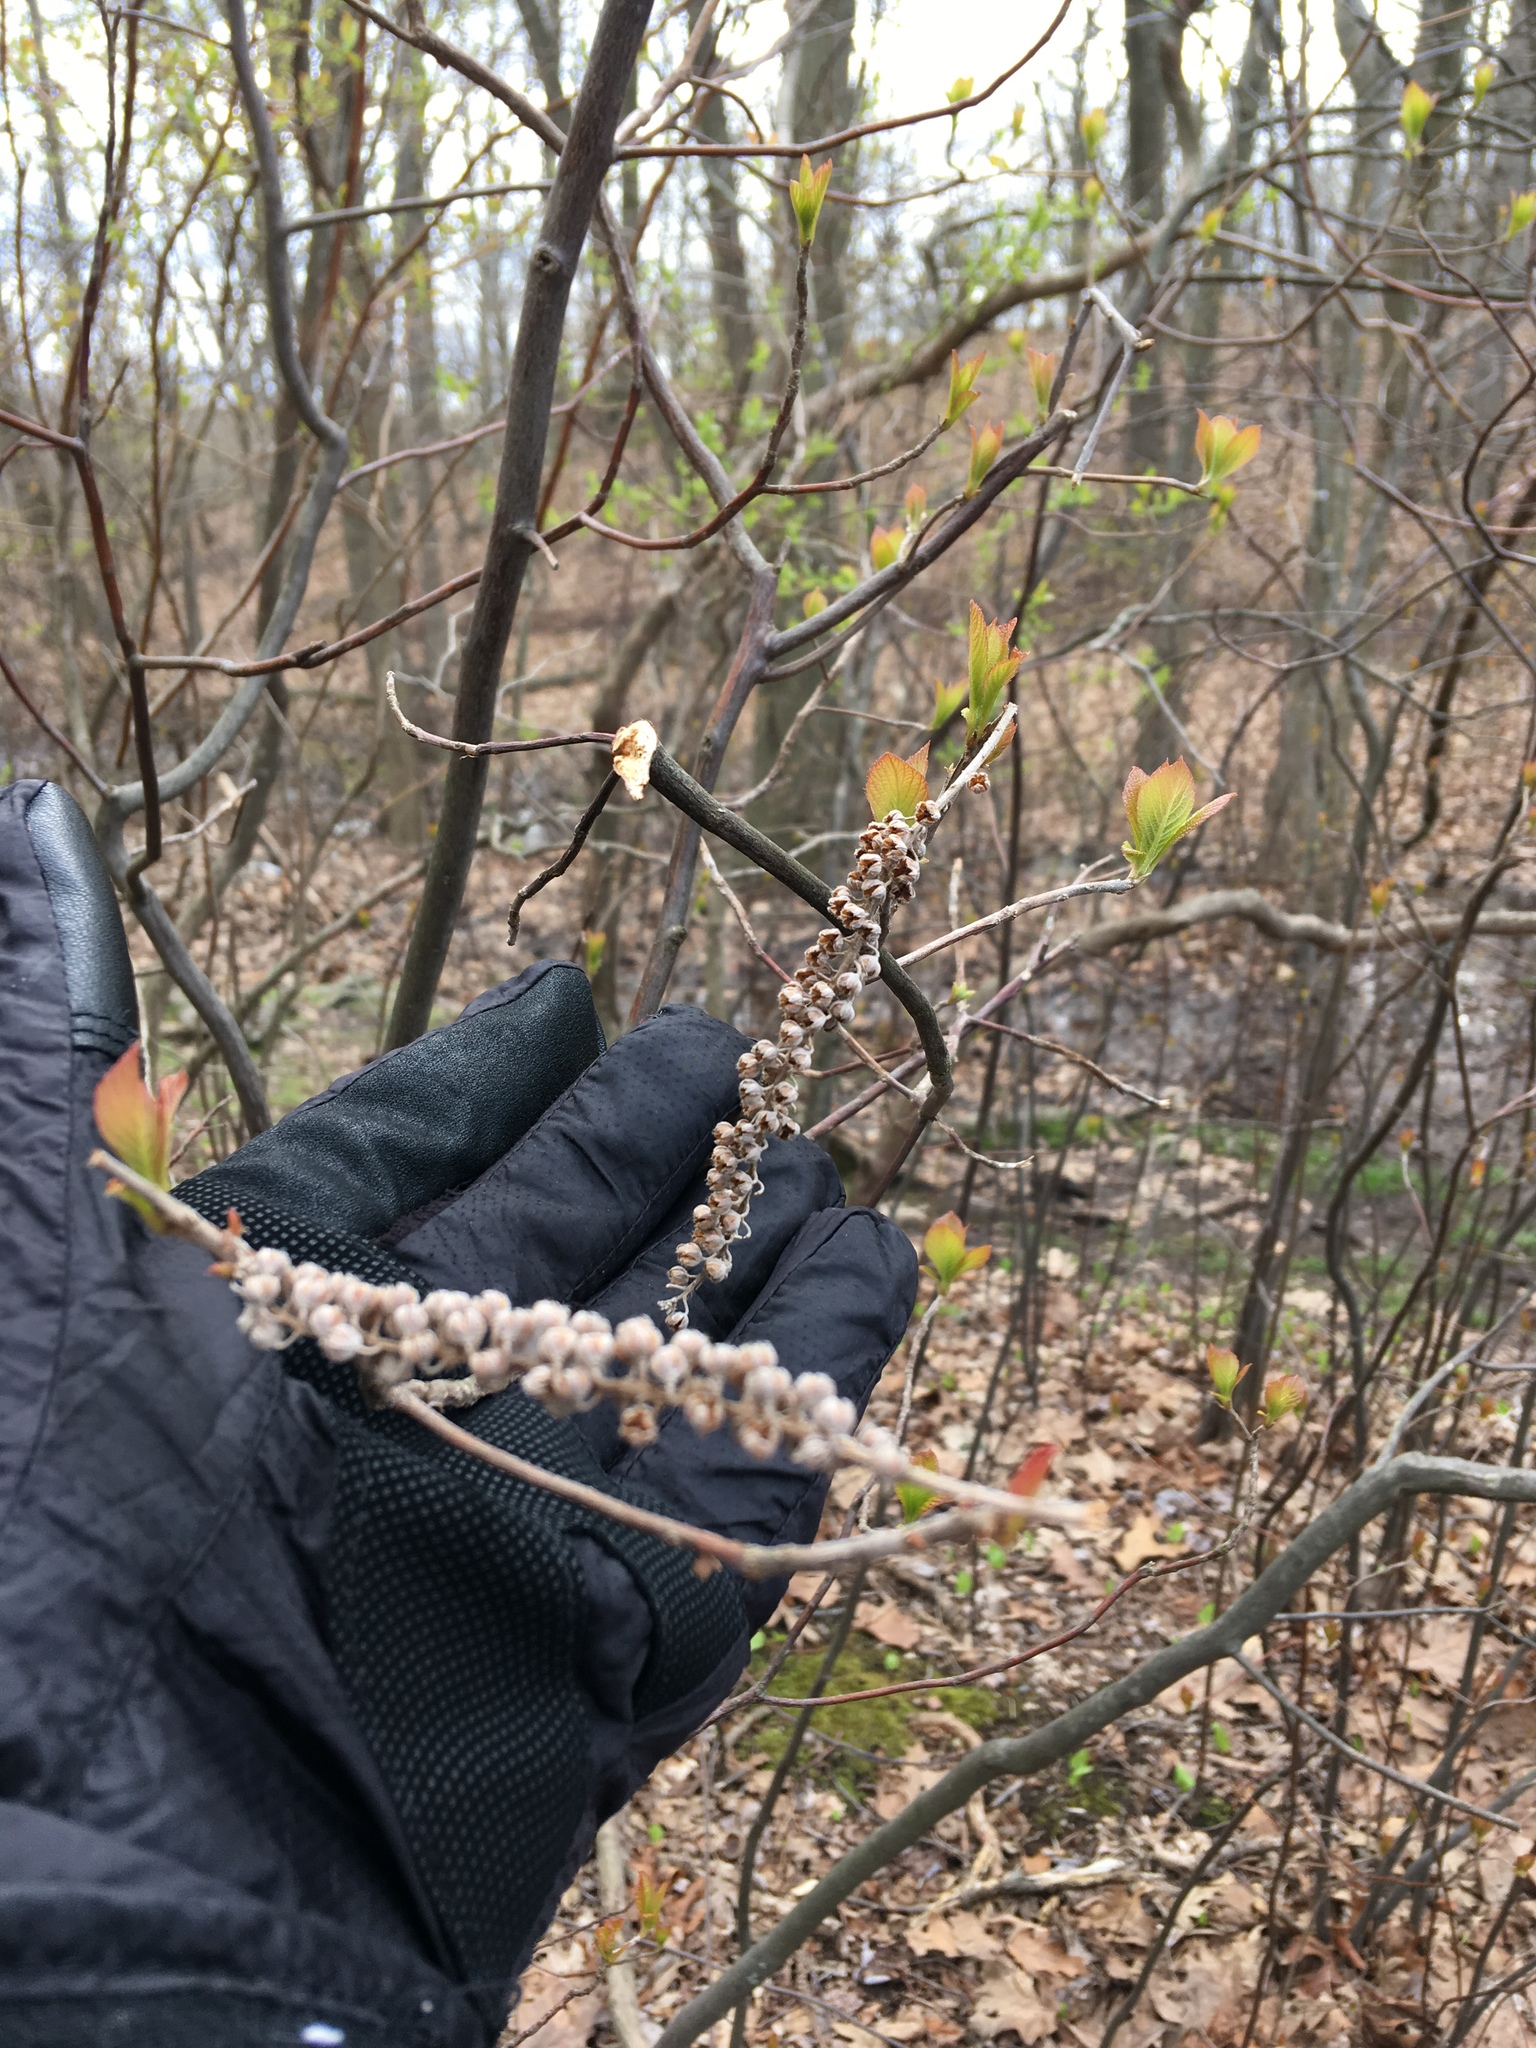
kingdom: Plantae
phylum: Tracheophyta
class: Magnoliopsida
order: Ericales
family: Clethraceae
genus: Clethra
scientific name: Clethra alnifolia
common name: Sweet pepperbush
